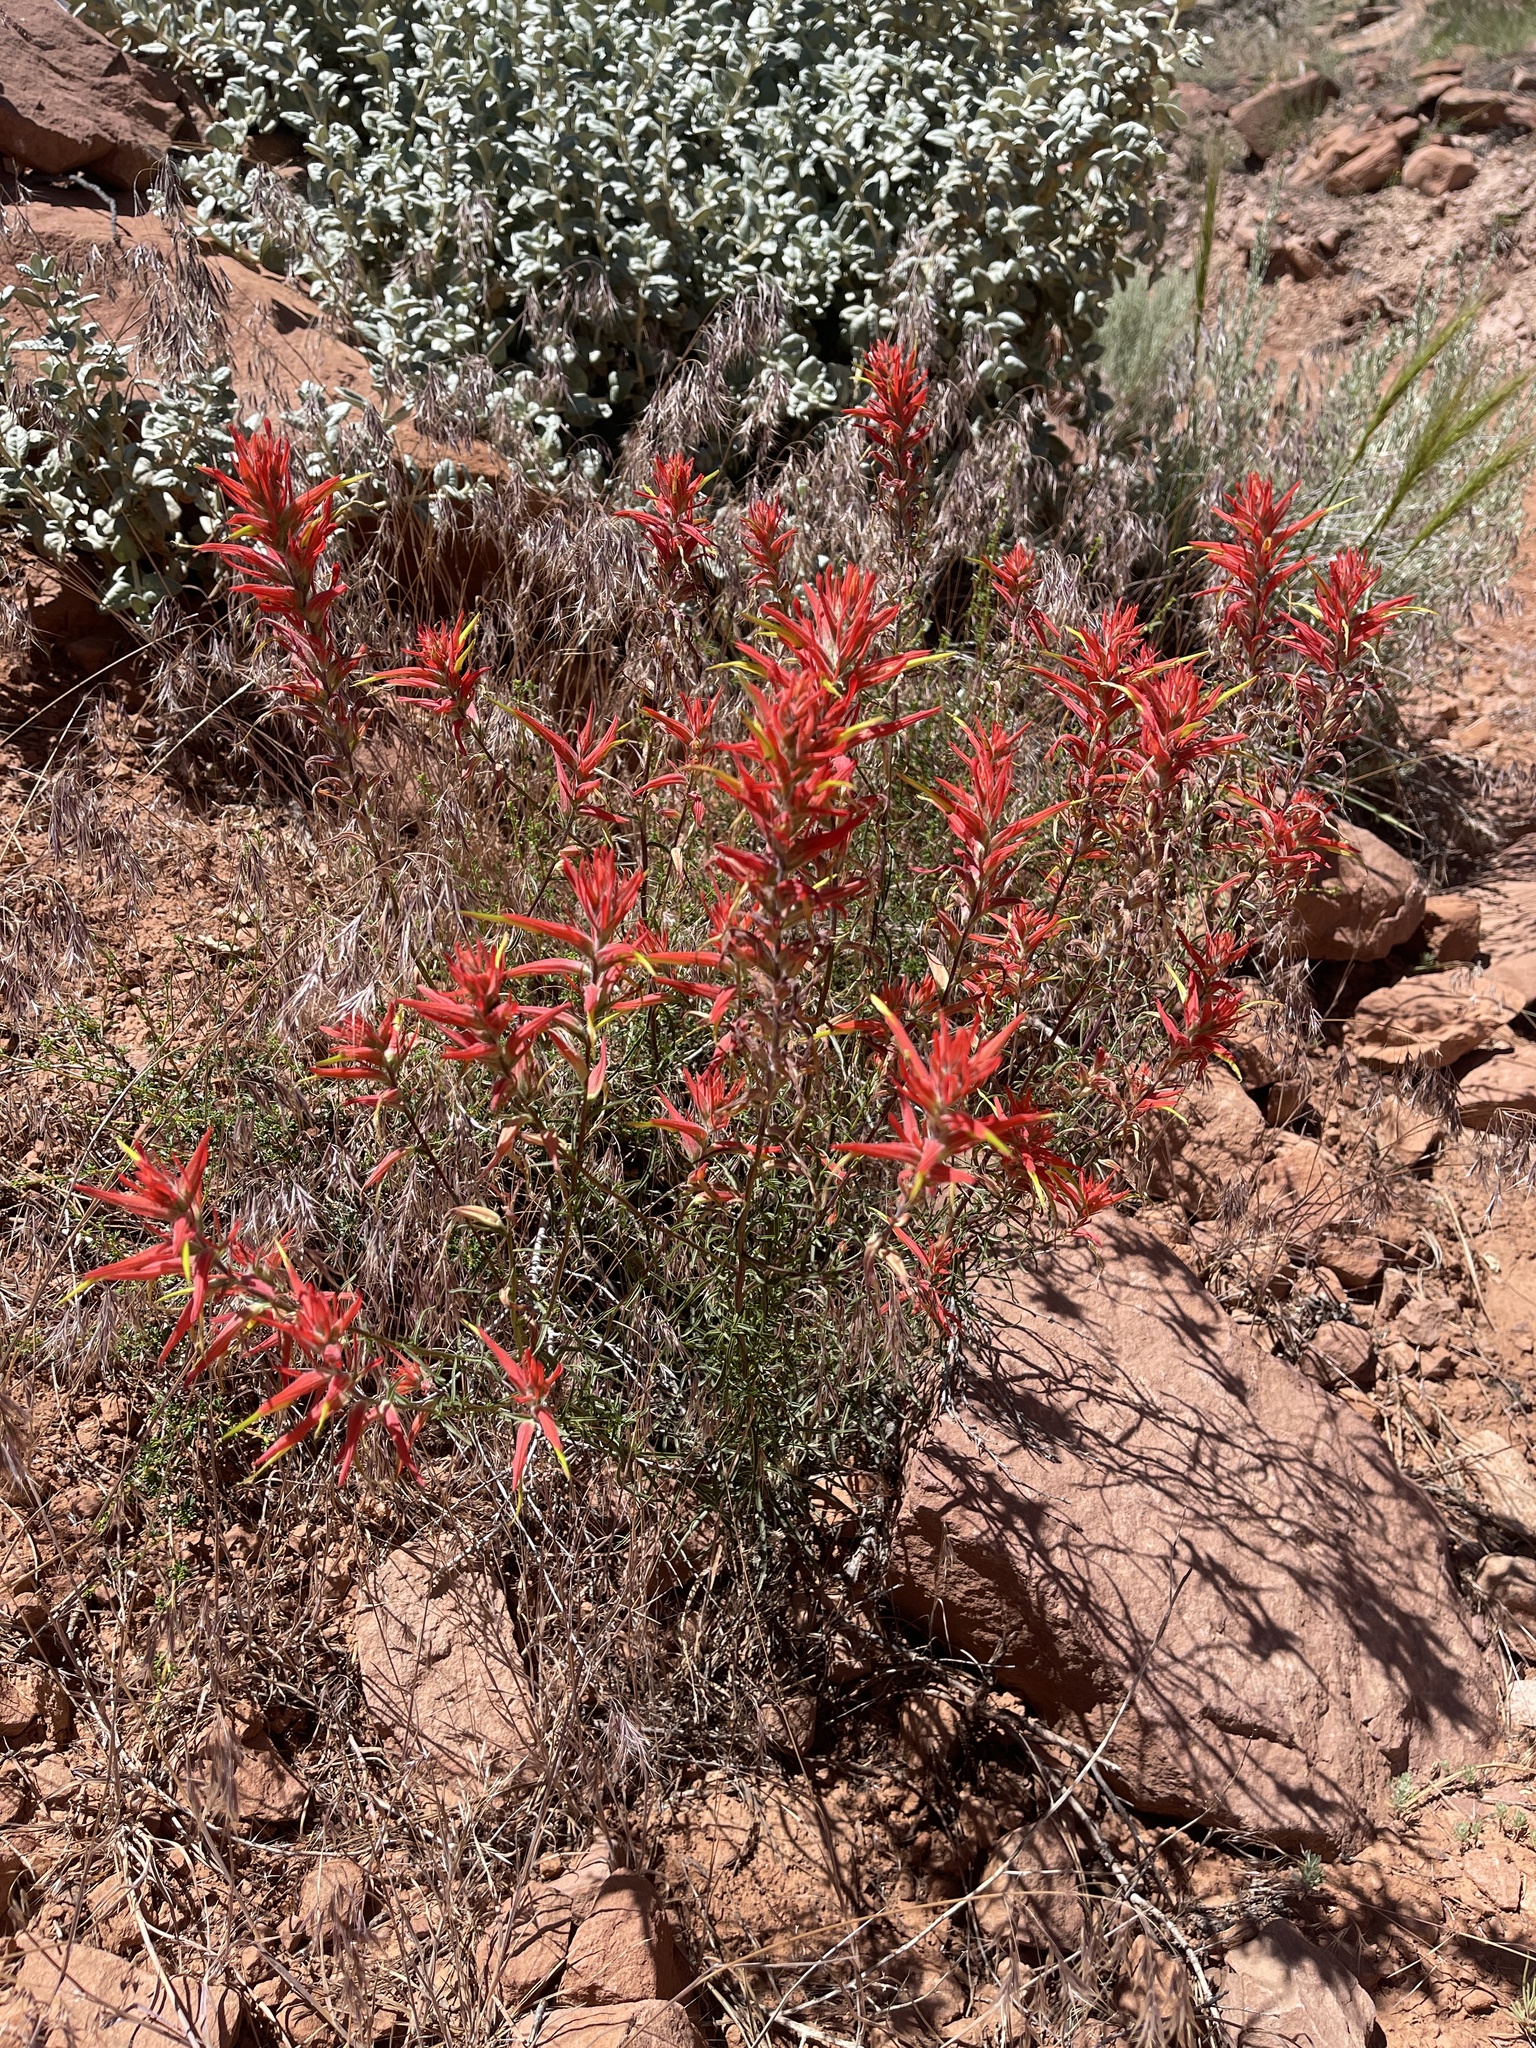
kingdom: Plantae
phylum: Tracheophyta
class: Magnoliopsida
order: Lamiales
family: Orobanchaceae
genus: Castilleja
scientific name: Castilleja linariifolia
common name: Wyoming paintbrush
